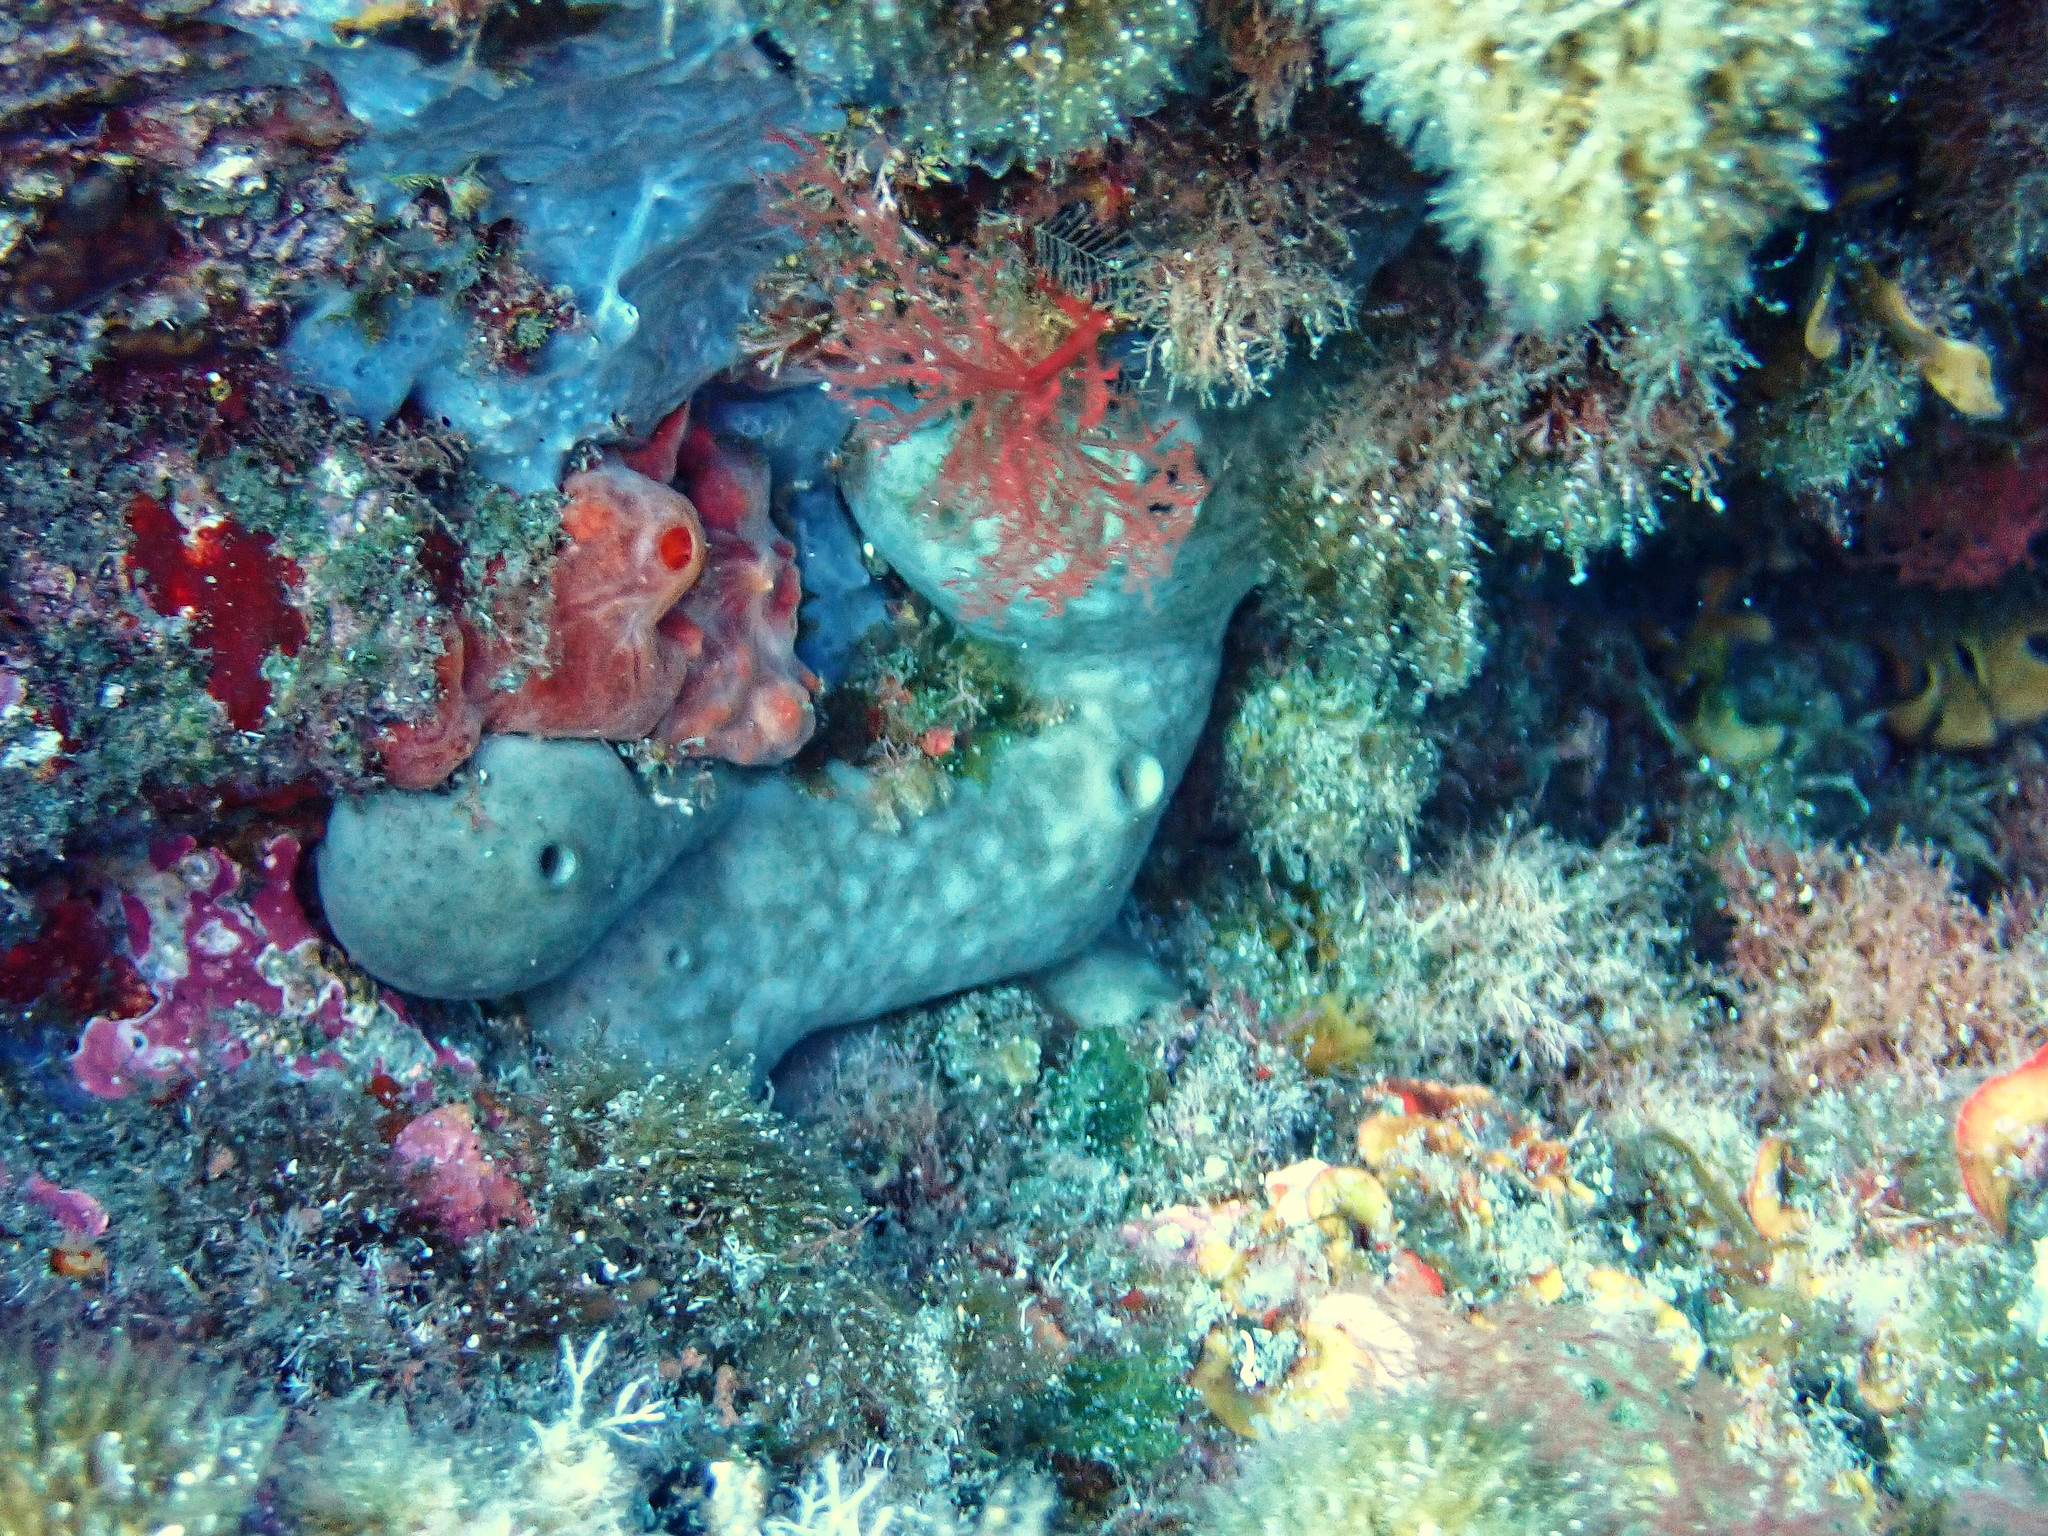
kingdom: Animalia
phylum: Porifera
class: Demospongiae
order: Chondrosiida
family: Chondrosiidae
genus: Chondrosia
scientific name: Chondrosia reniformis
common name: Chicken liver sponge
